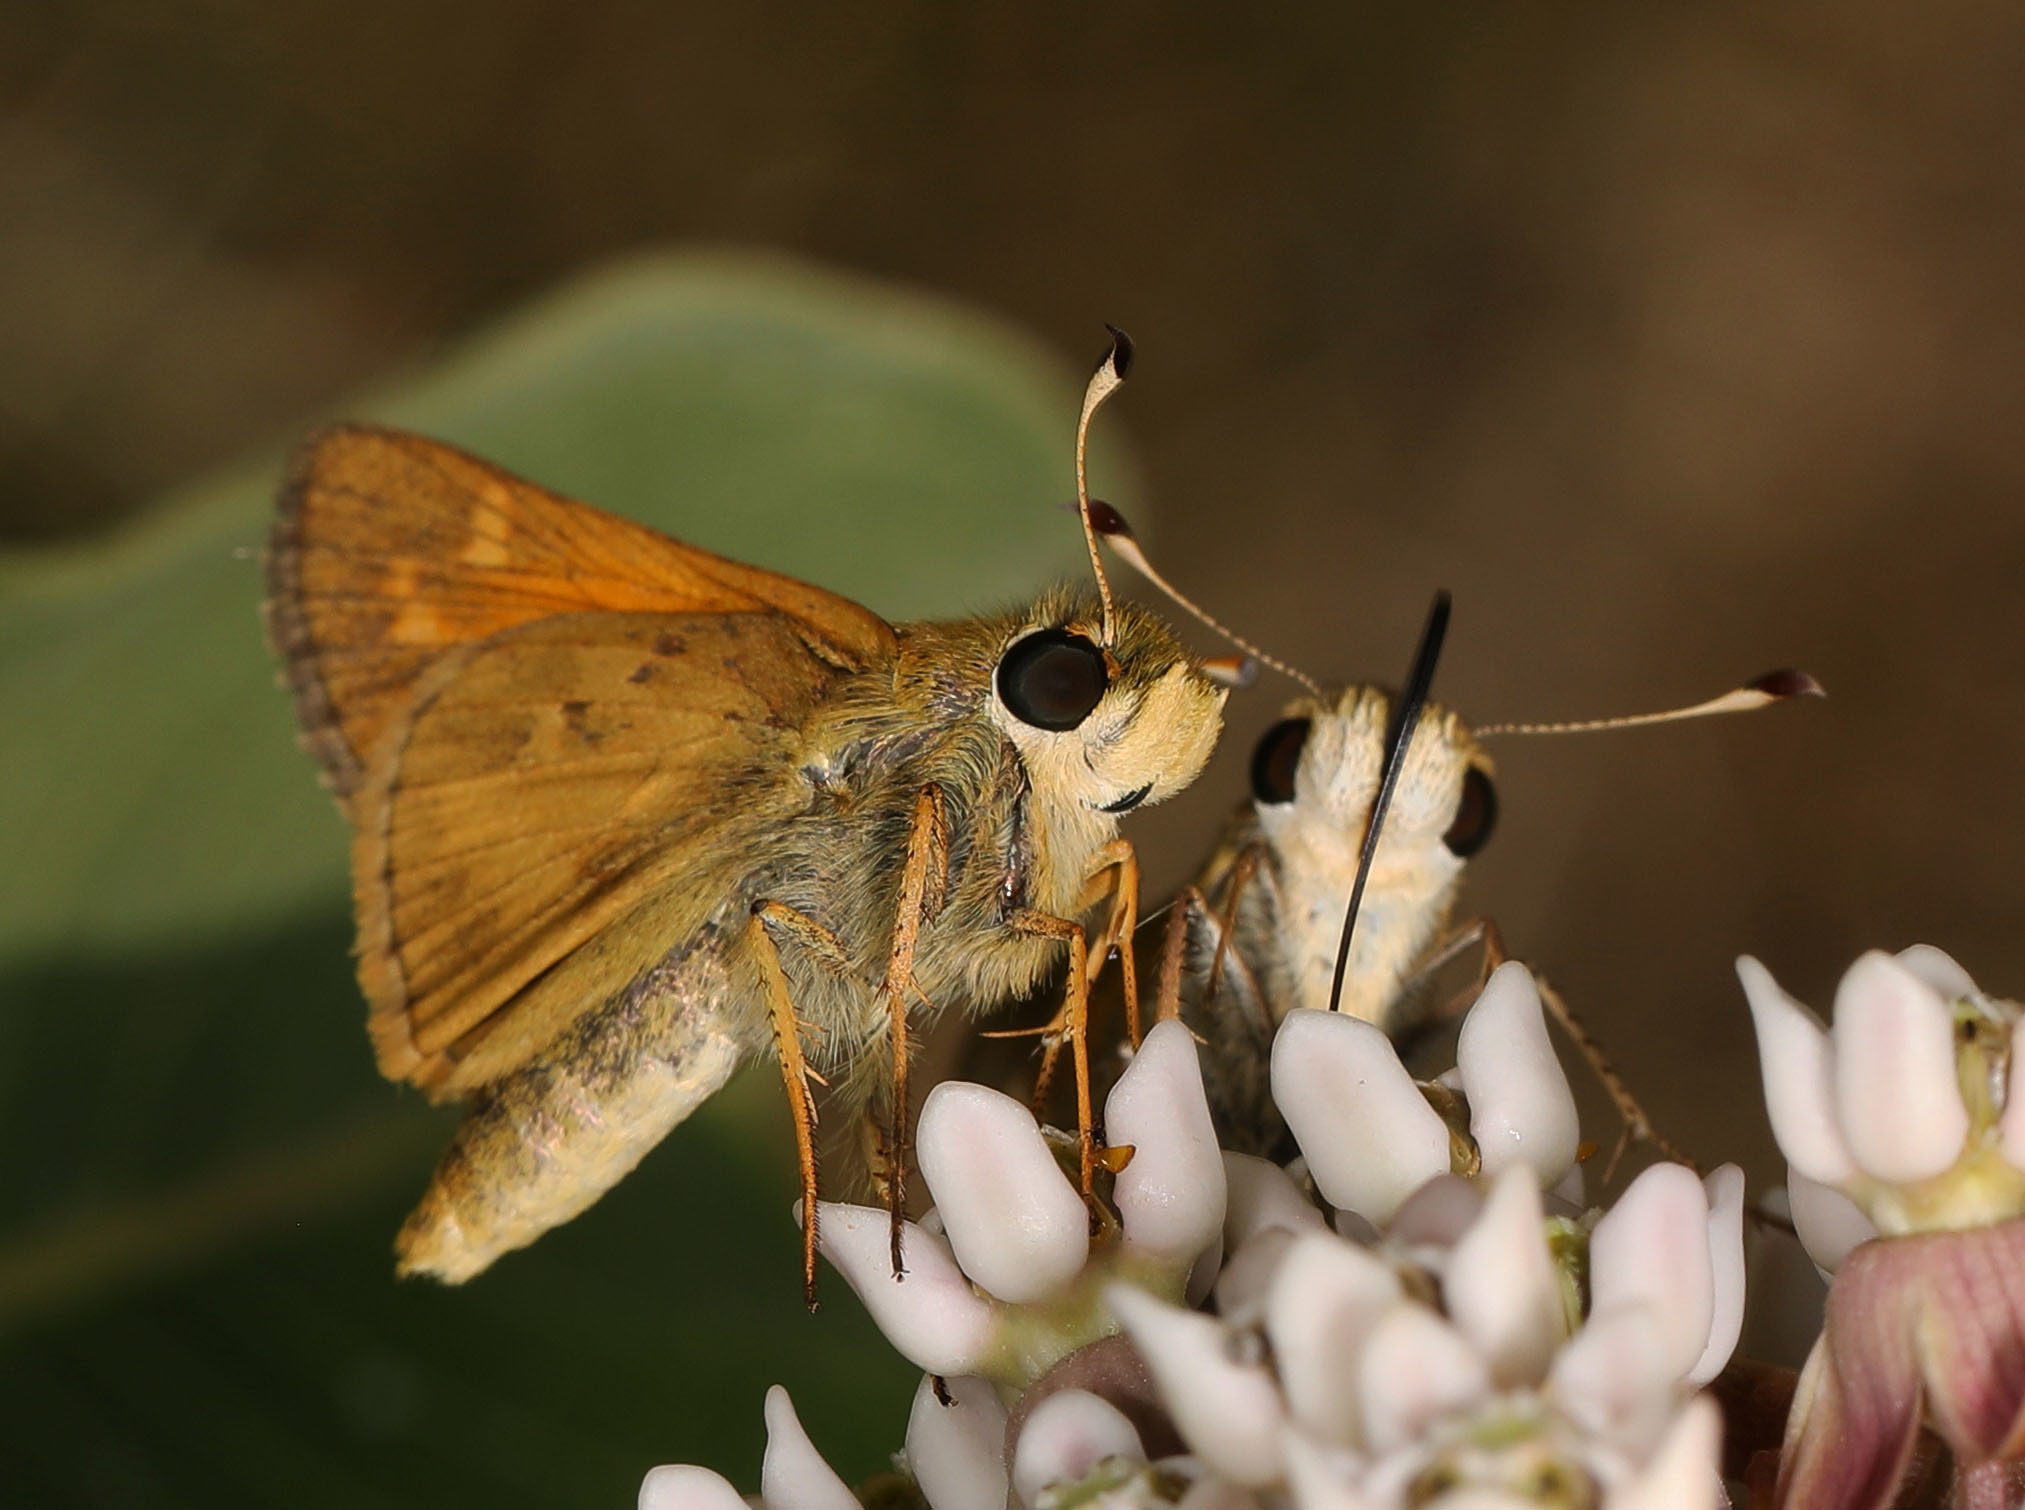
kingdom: Animalia
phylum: Arthropoda
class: Insecta
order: Lepidoptera
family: Hesperiidae
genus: Atalopedes
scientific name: Atalopedes
